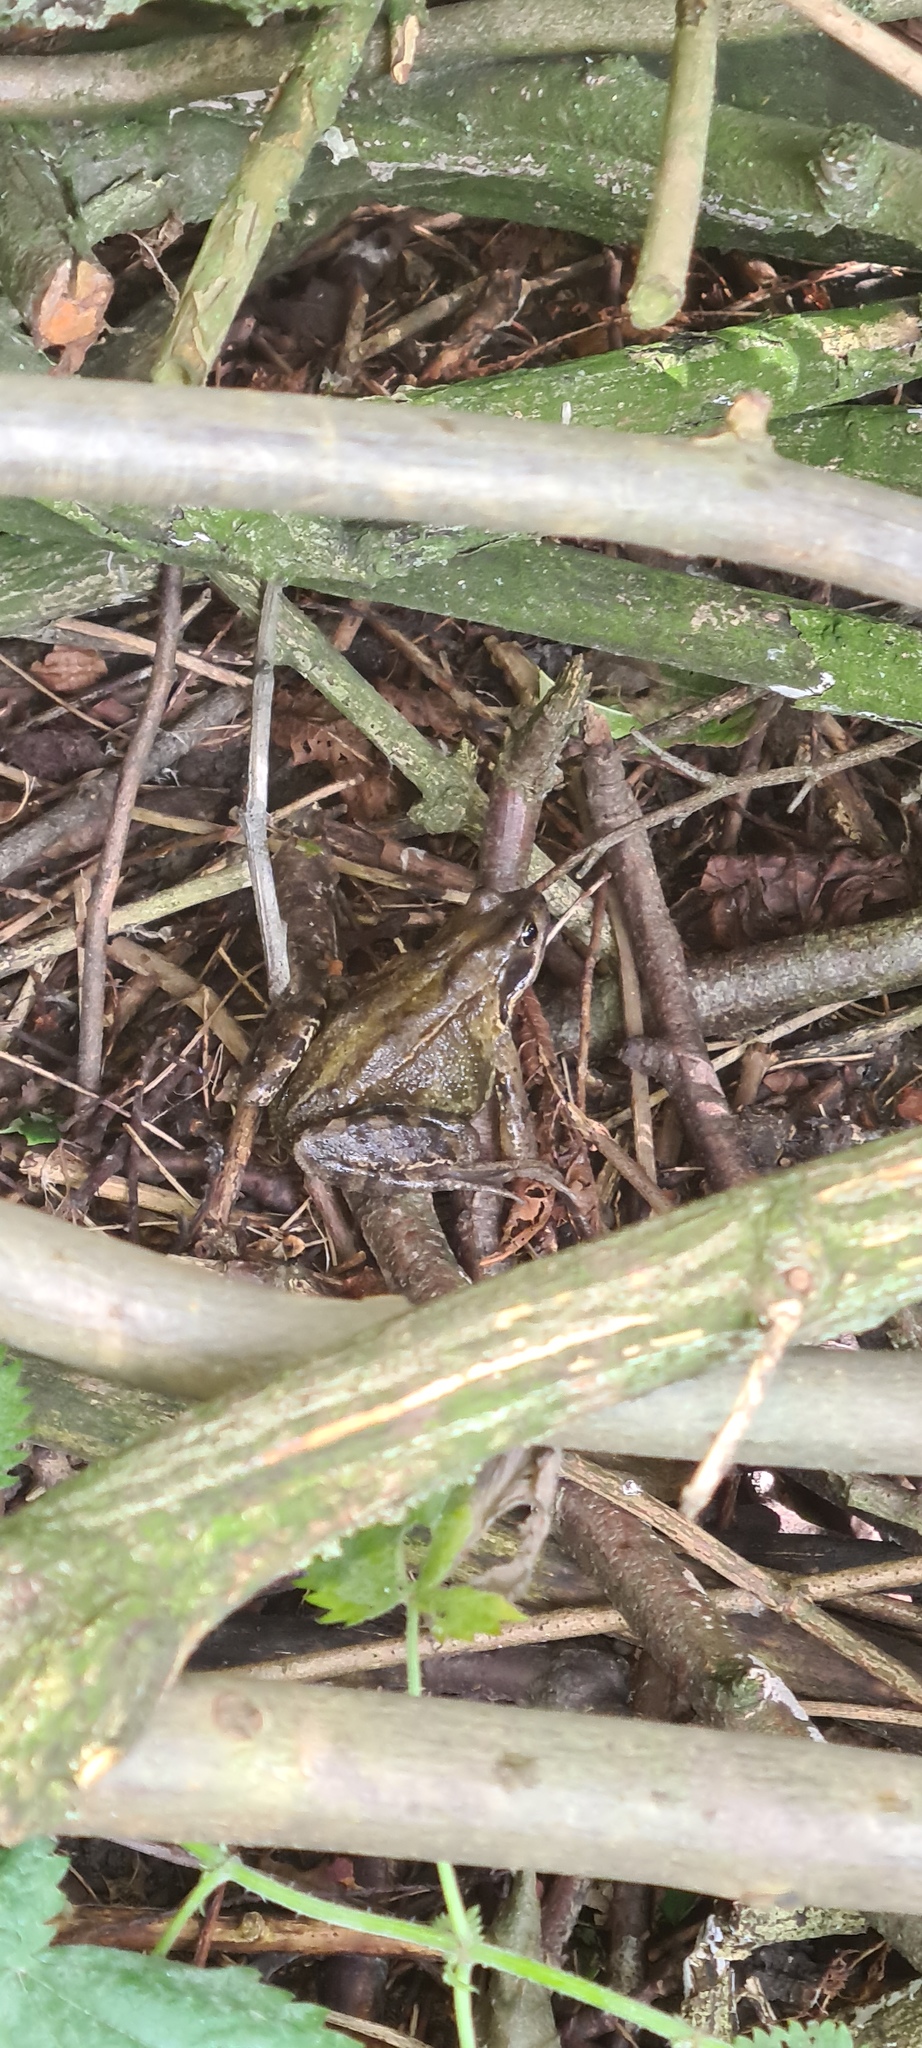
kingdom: Animalia
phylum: Chordata
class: Amphibia
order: Anura
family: Ranidae
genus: Rana
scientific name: Rana temporaria
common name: Common frog
